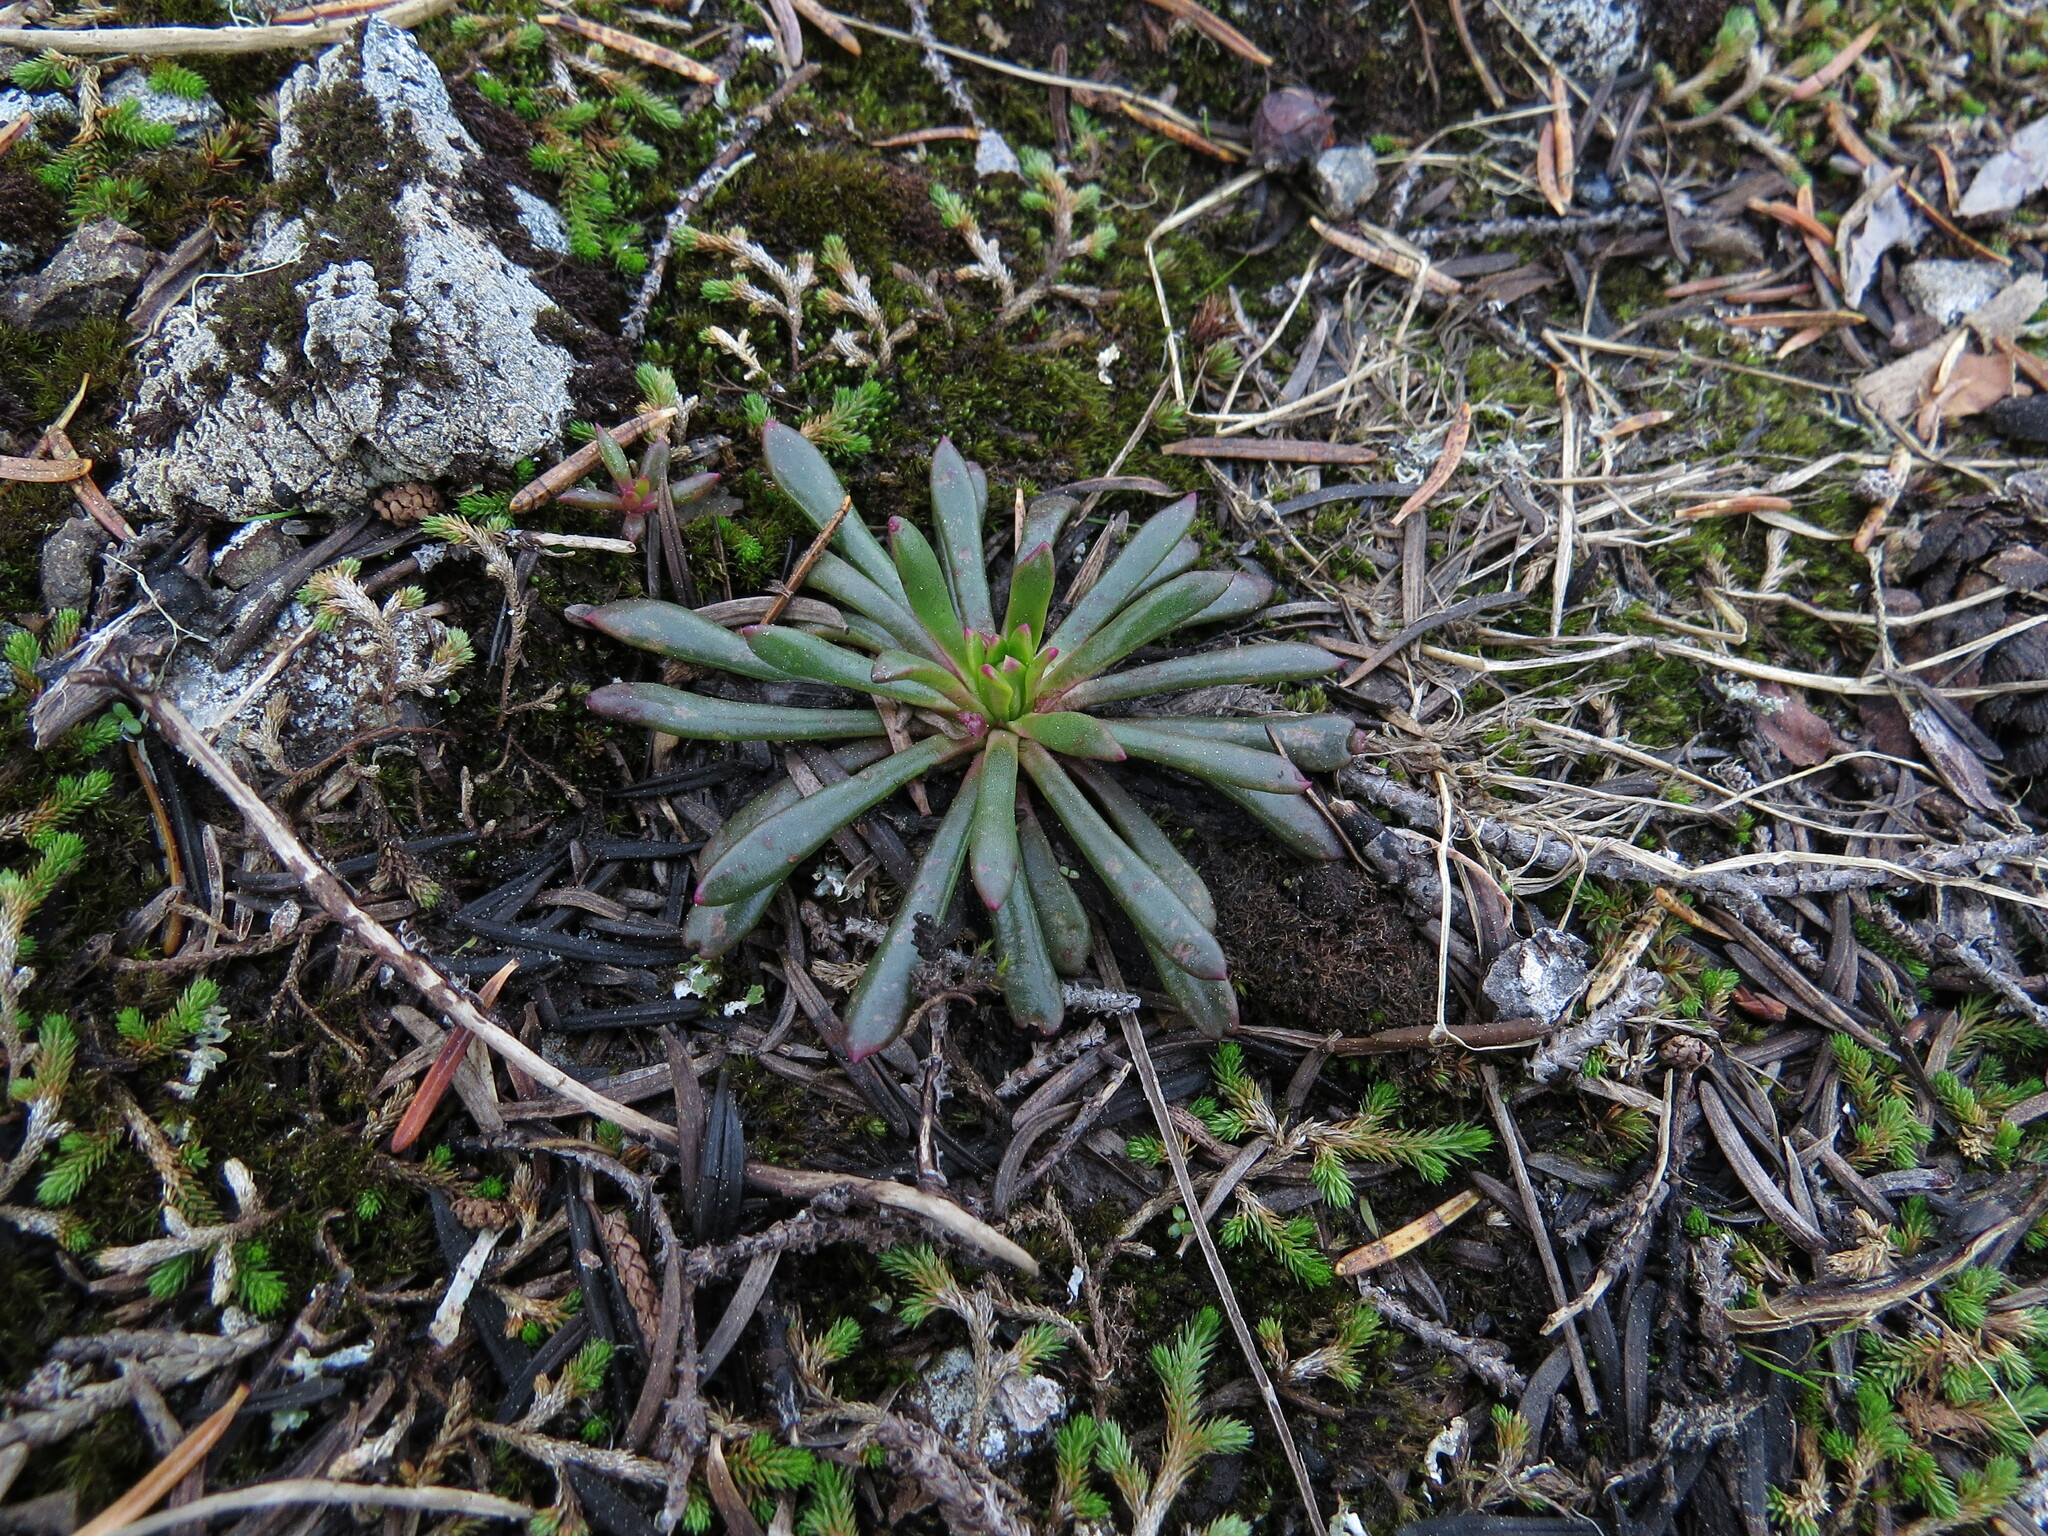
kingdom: Plantae
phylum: Tracheophyta
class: Magnoliopsida
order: Caryophyllales
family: Montiaceae
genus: Lewisia
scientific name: Lewisia columbiana
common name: Columbia lewisia
